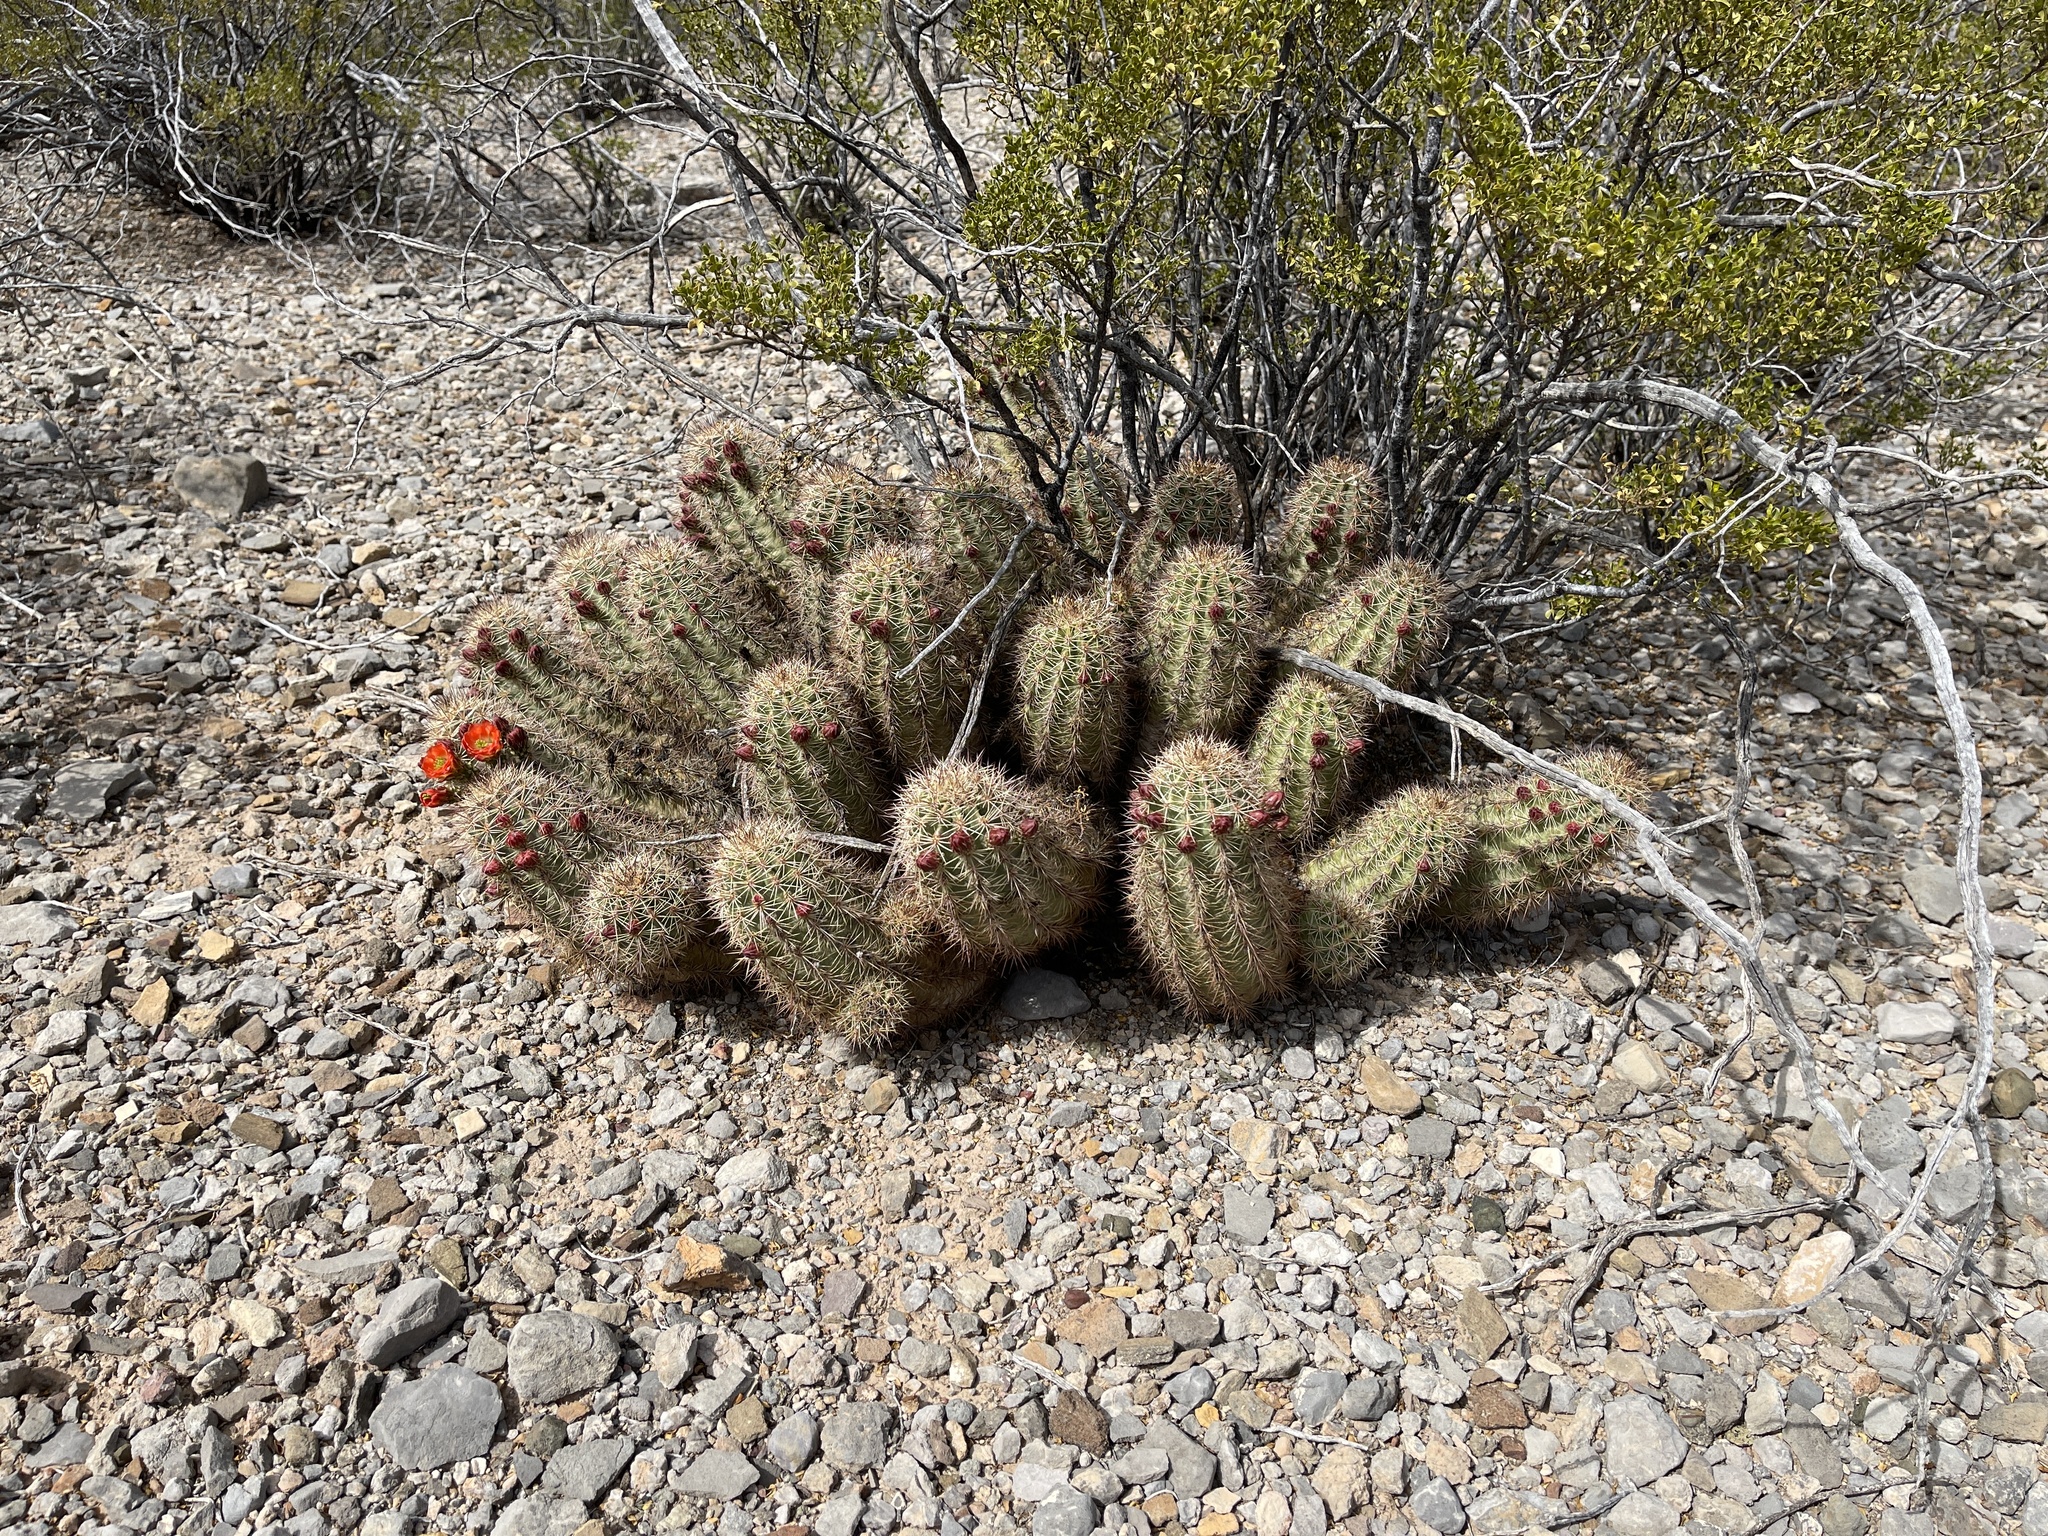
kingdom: Plantae
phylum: Tracheophyta
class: Magnoliopsida
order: Caryophyllales
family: Cactaceae
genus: Echinocereus
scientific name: Echinocereus coccineus
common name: Scarlet hedgehog cactus
